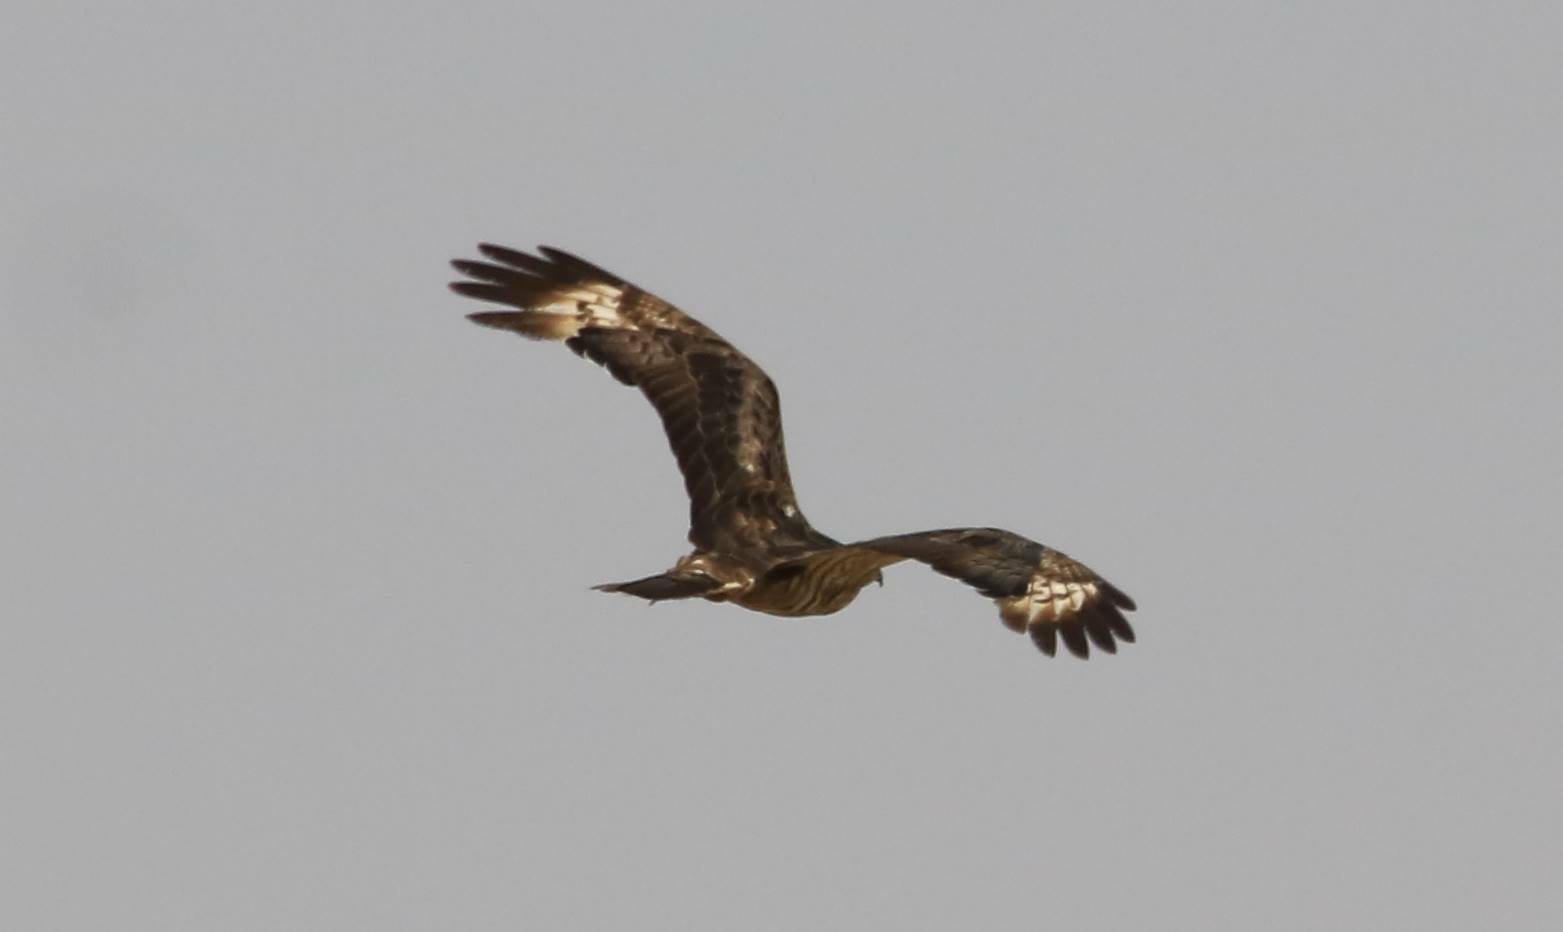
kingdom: Animalia
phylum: Chordata
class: Aves
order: Accipitriformes
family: Accipitridae
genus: Pernis
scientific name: Pernis apivorus
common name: European honey buzzard
